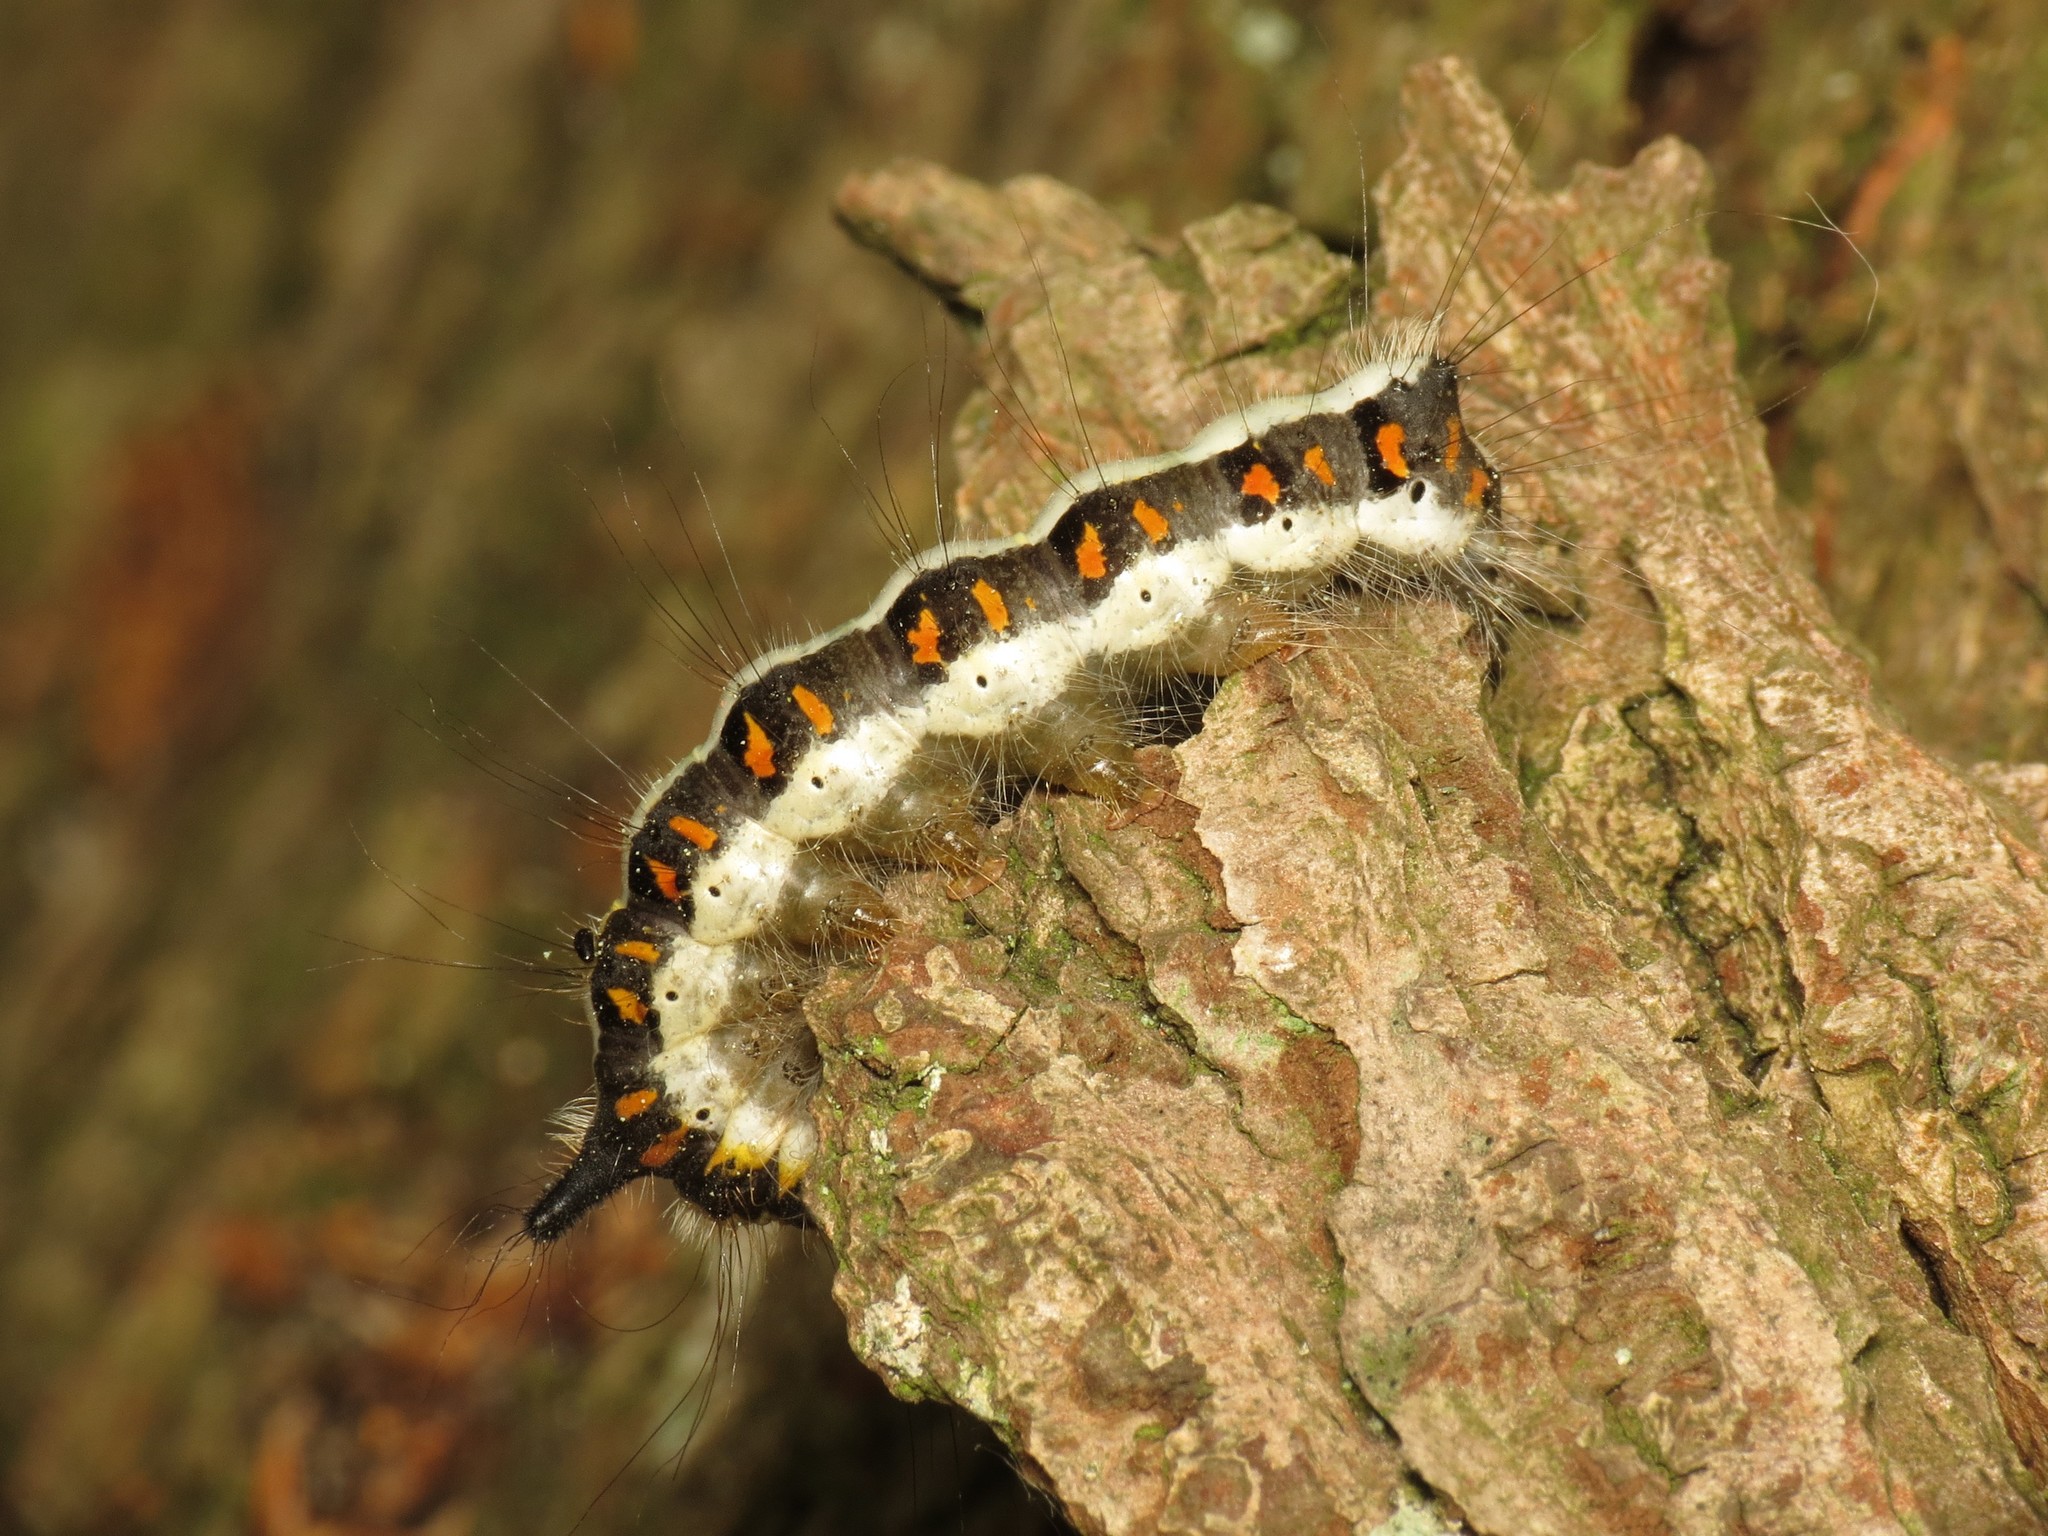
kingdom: Animalia
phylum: Arthropoda
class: Insecta
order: Lepidoptera
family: Noctuidae
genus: Acronicta
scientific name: Acronicta psi
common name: Grey dagger
